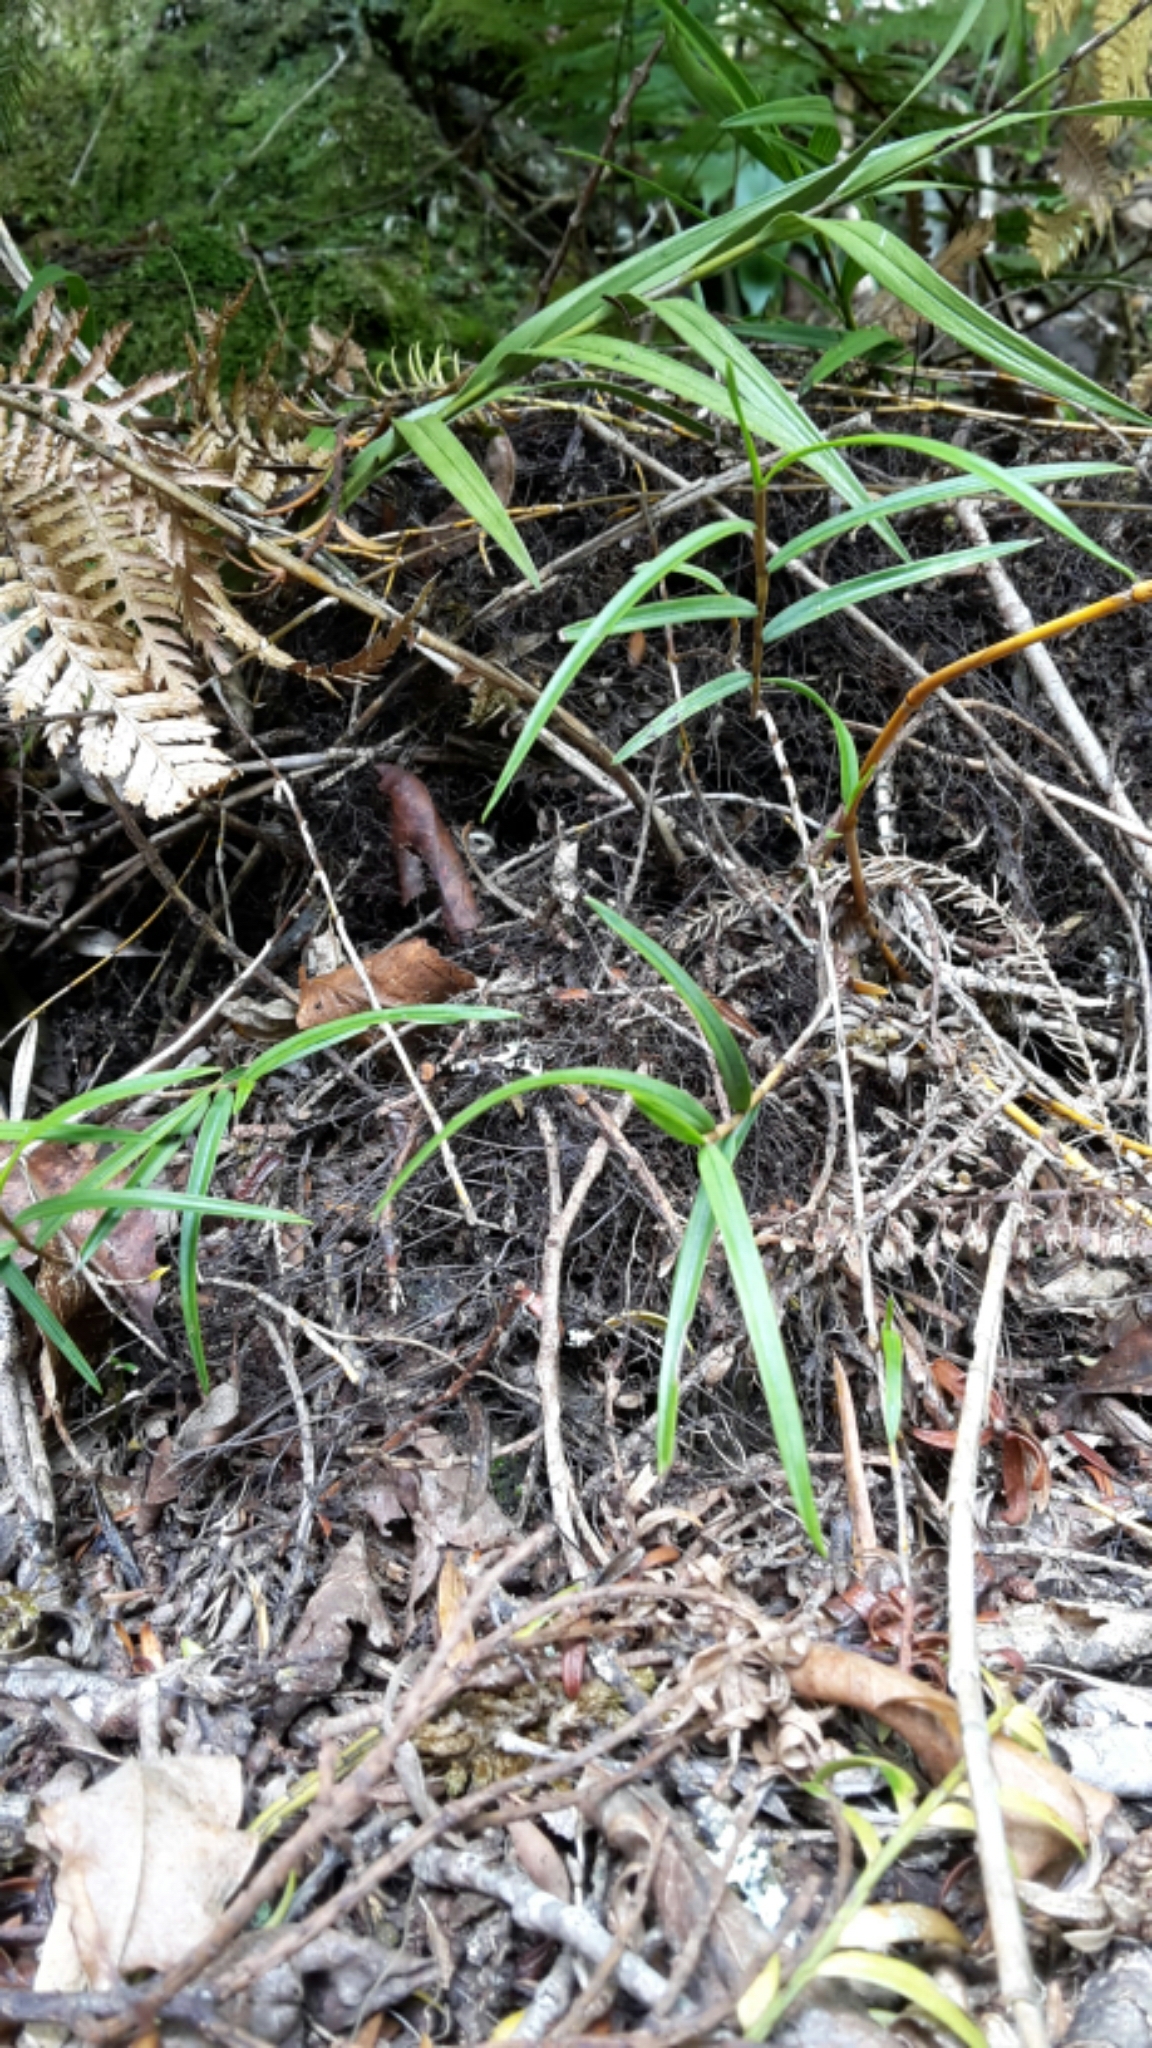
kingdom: Plantae
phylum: Tracheophyta
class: Liliopsida
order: Asparagales
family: Orchidaceae
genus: Dendrobium
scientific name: Dendrobium cunninghamii
